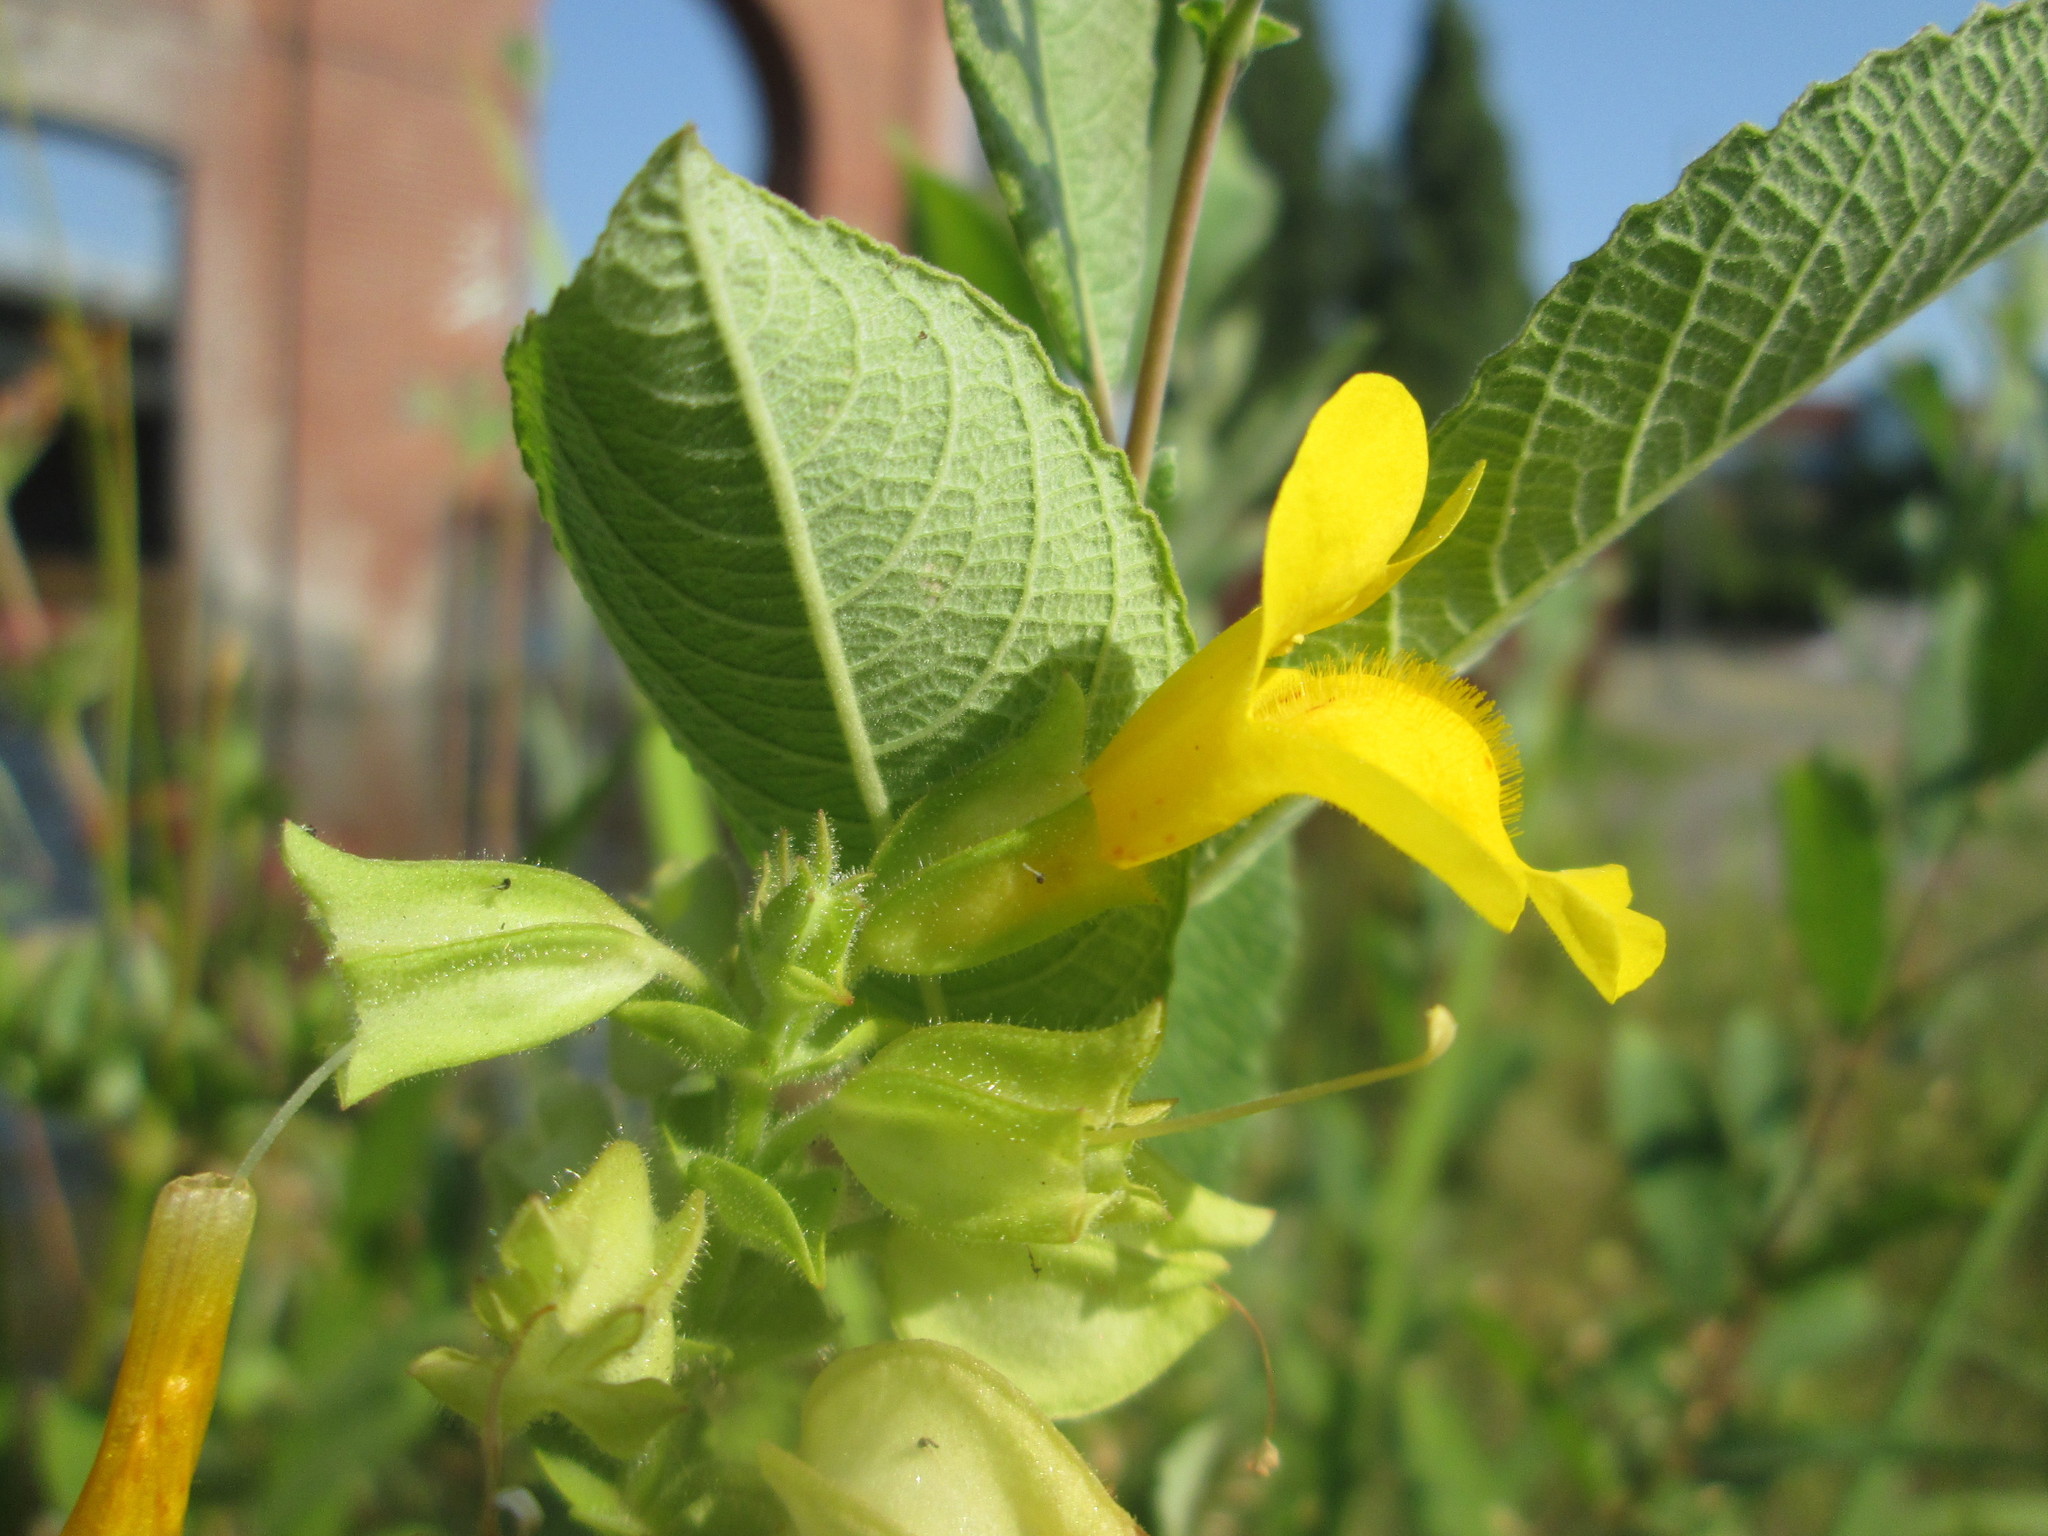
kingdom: Plantae
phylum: Tracheophyta
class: Magnoliopsida
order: Lamiales
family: Phrymaceae
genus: Erythranthe
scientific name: Erythranthe guttata
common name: Monkeyflower
